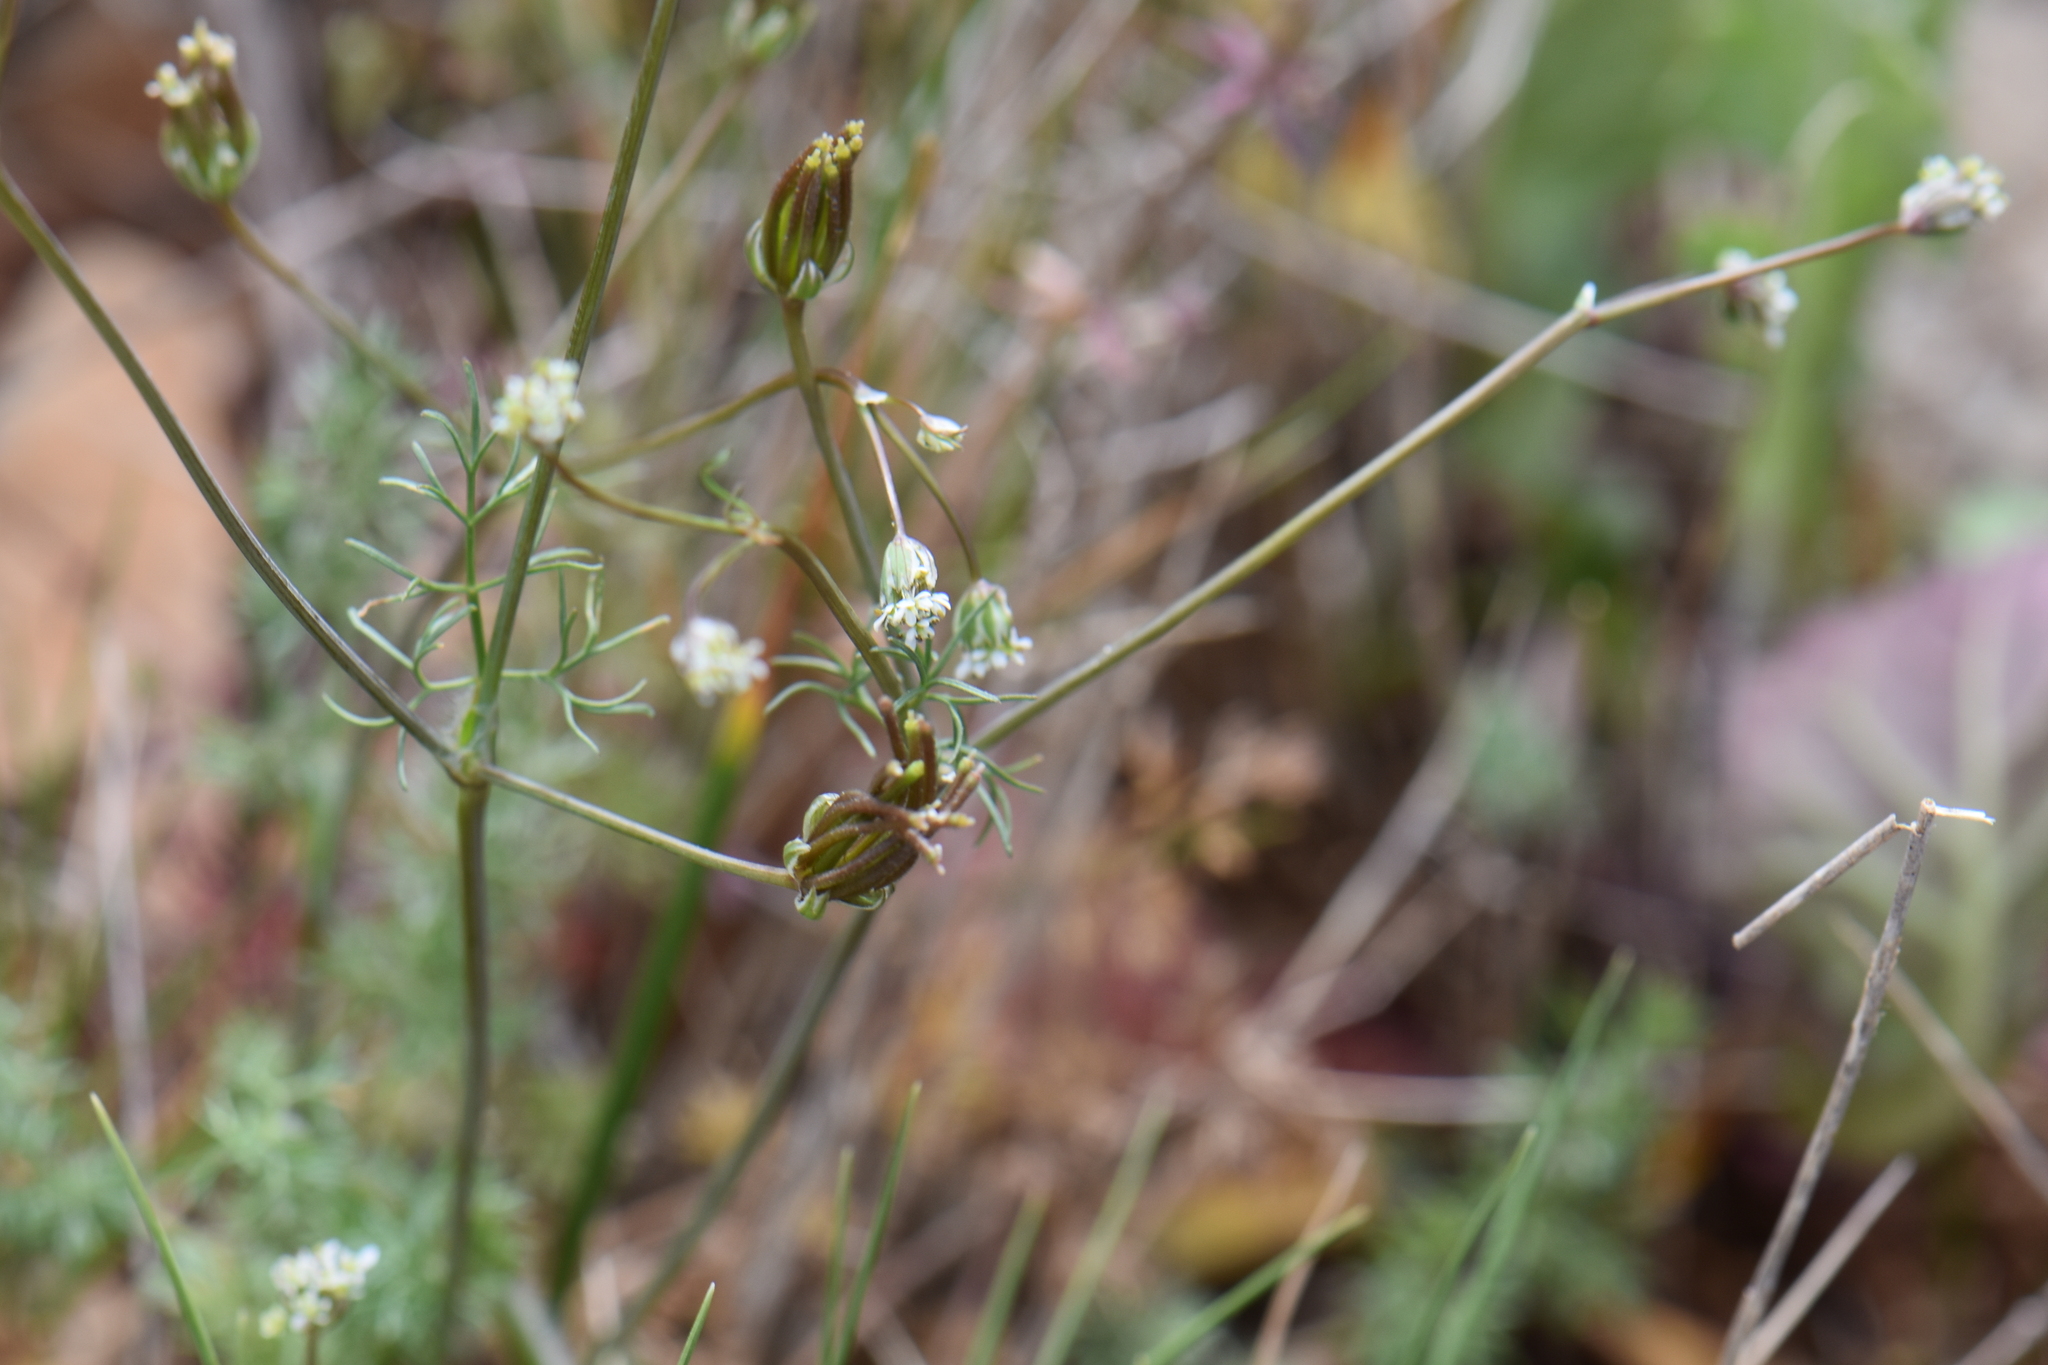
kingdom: Plantae
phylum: Tracheophyta
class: Magnoliopsida
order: Apiales
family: Apiaceae
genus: Scandix
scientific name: Scandix australis
